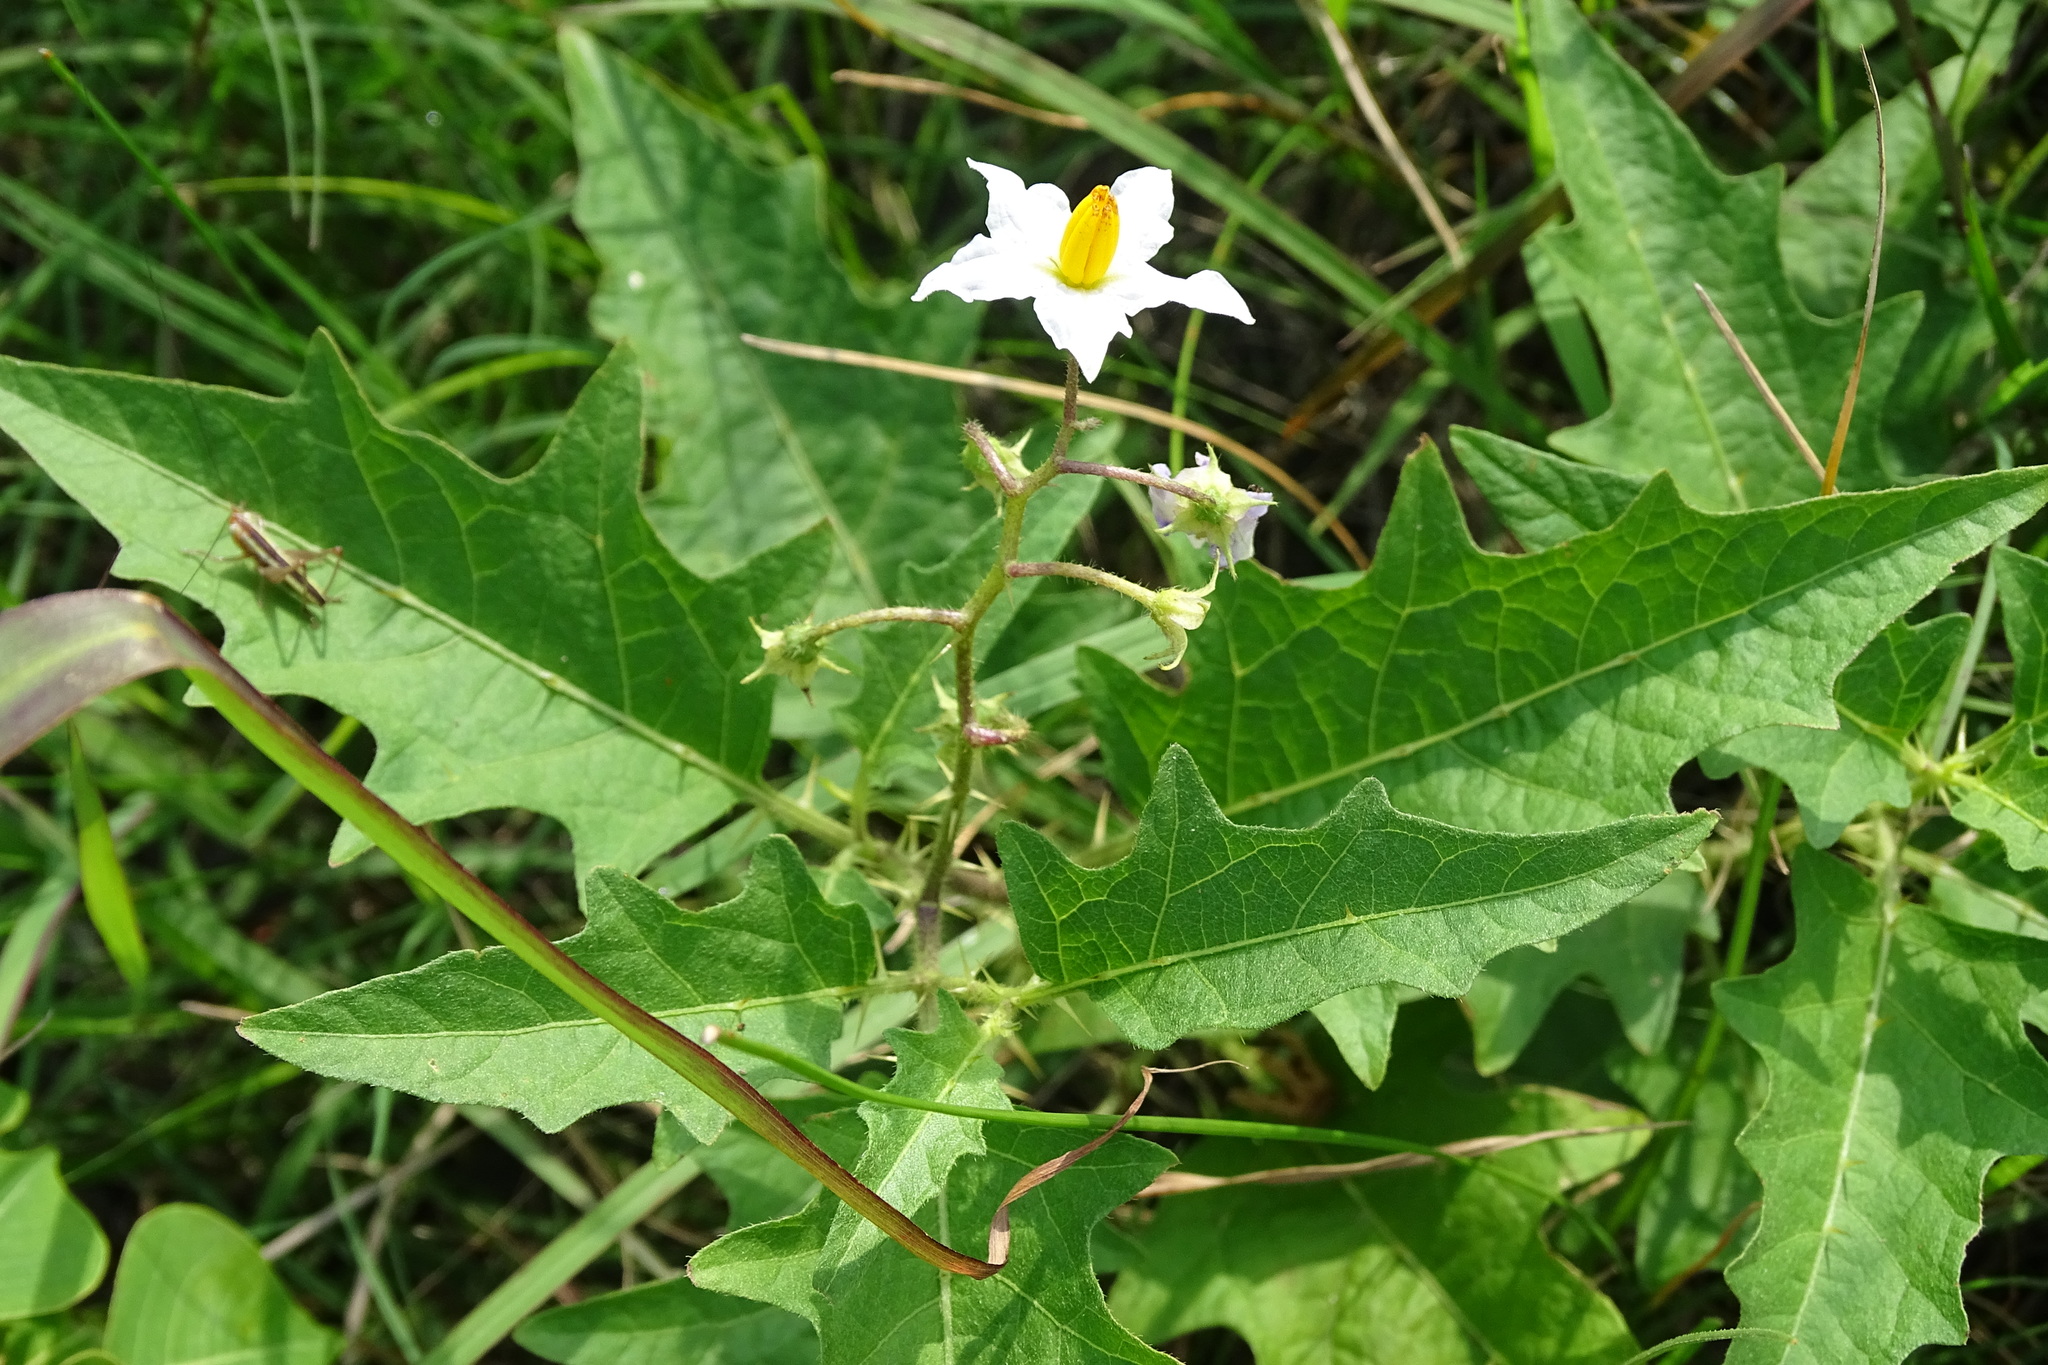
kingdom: Plantae
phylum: Tracheophyta
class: Magnoliopsida
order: Solanales
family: Solanaceae
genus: Solanum
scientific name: Solanum carolinense
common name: Horse-nettle
